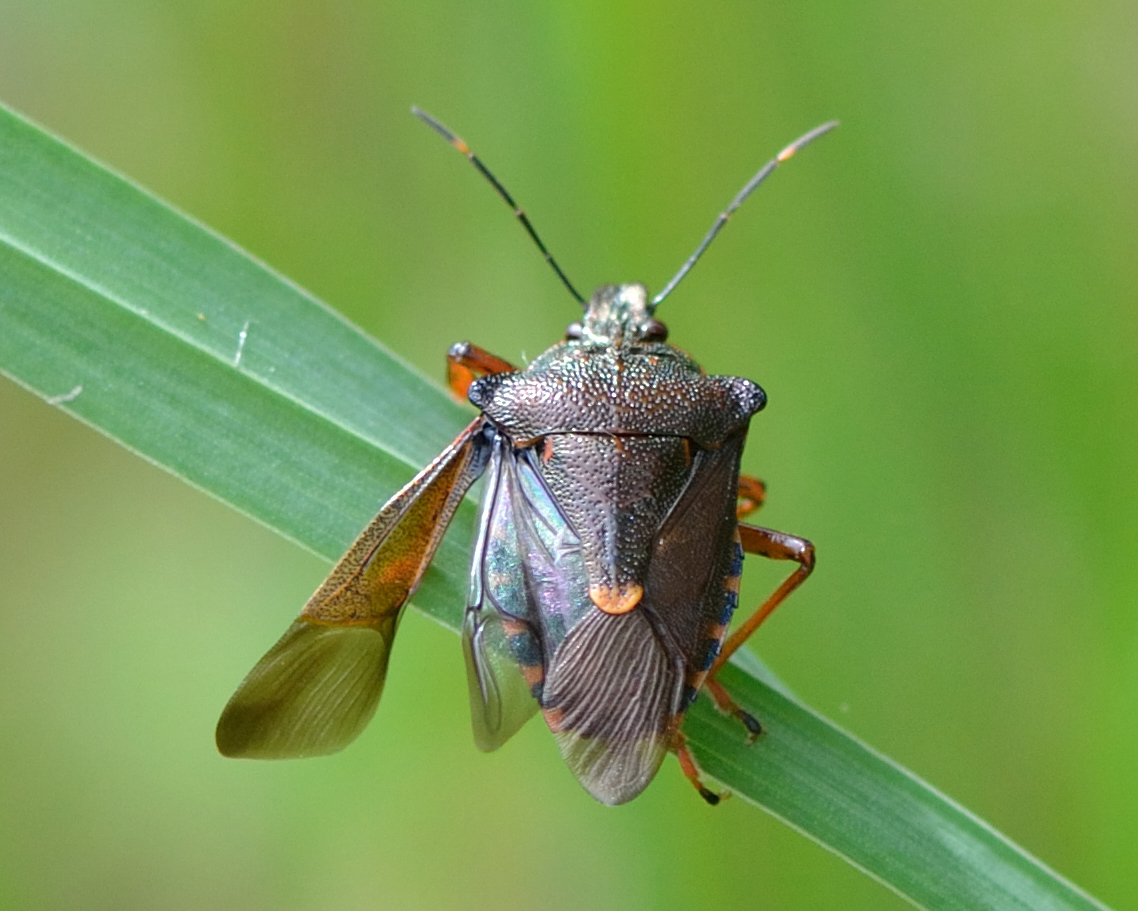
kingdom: Animalia
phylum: Arthropoda
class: Insecta
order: Hemiptera
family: Pentatomidae
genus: Pinthaeus
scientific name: Pinthaeus sanguinipes
